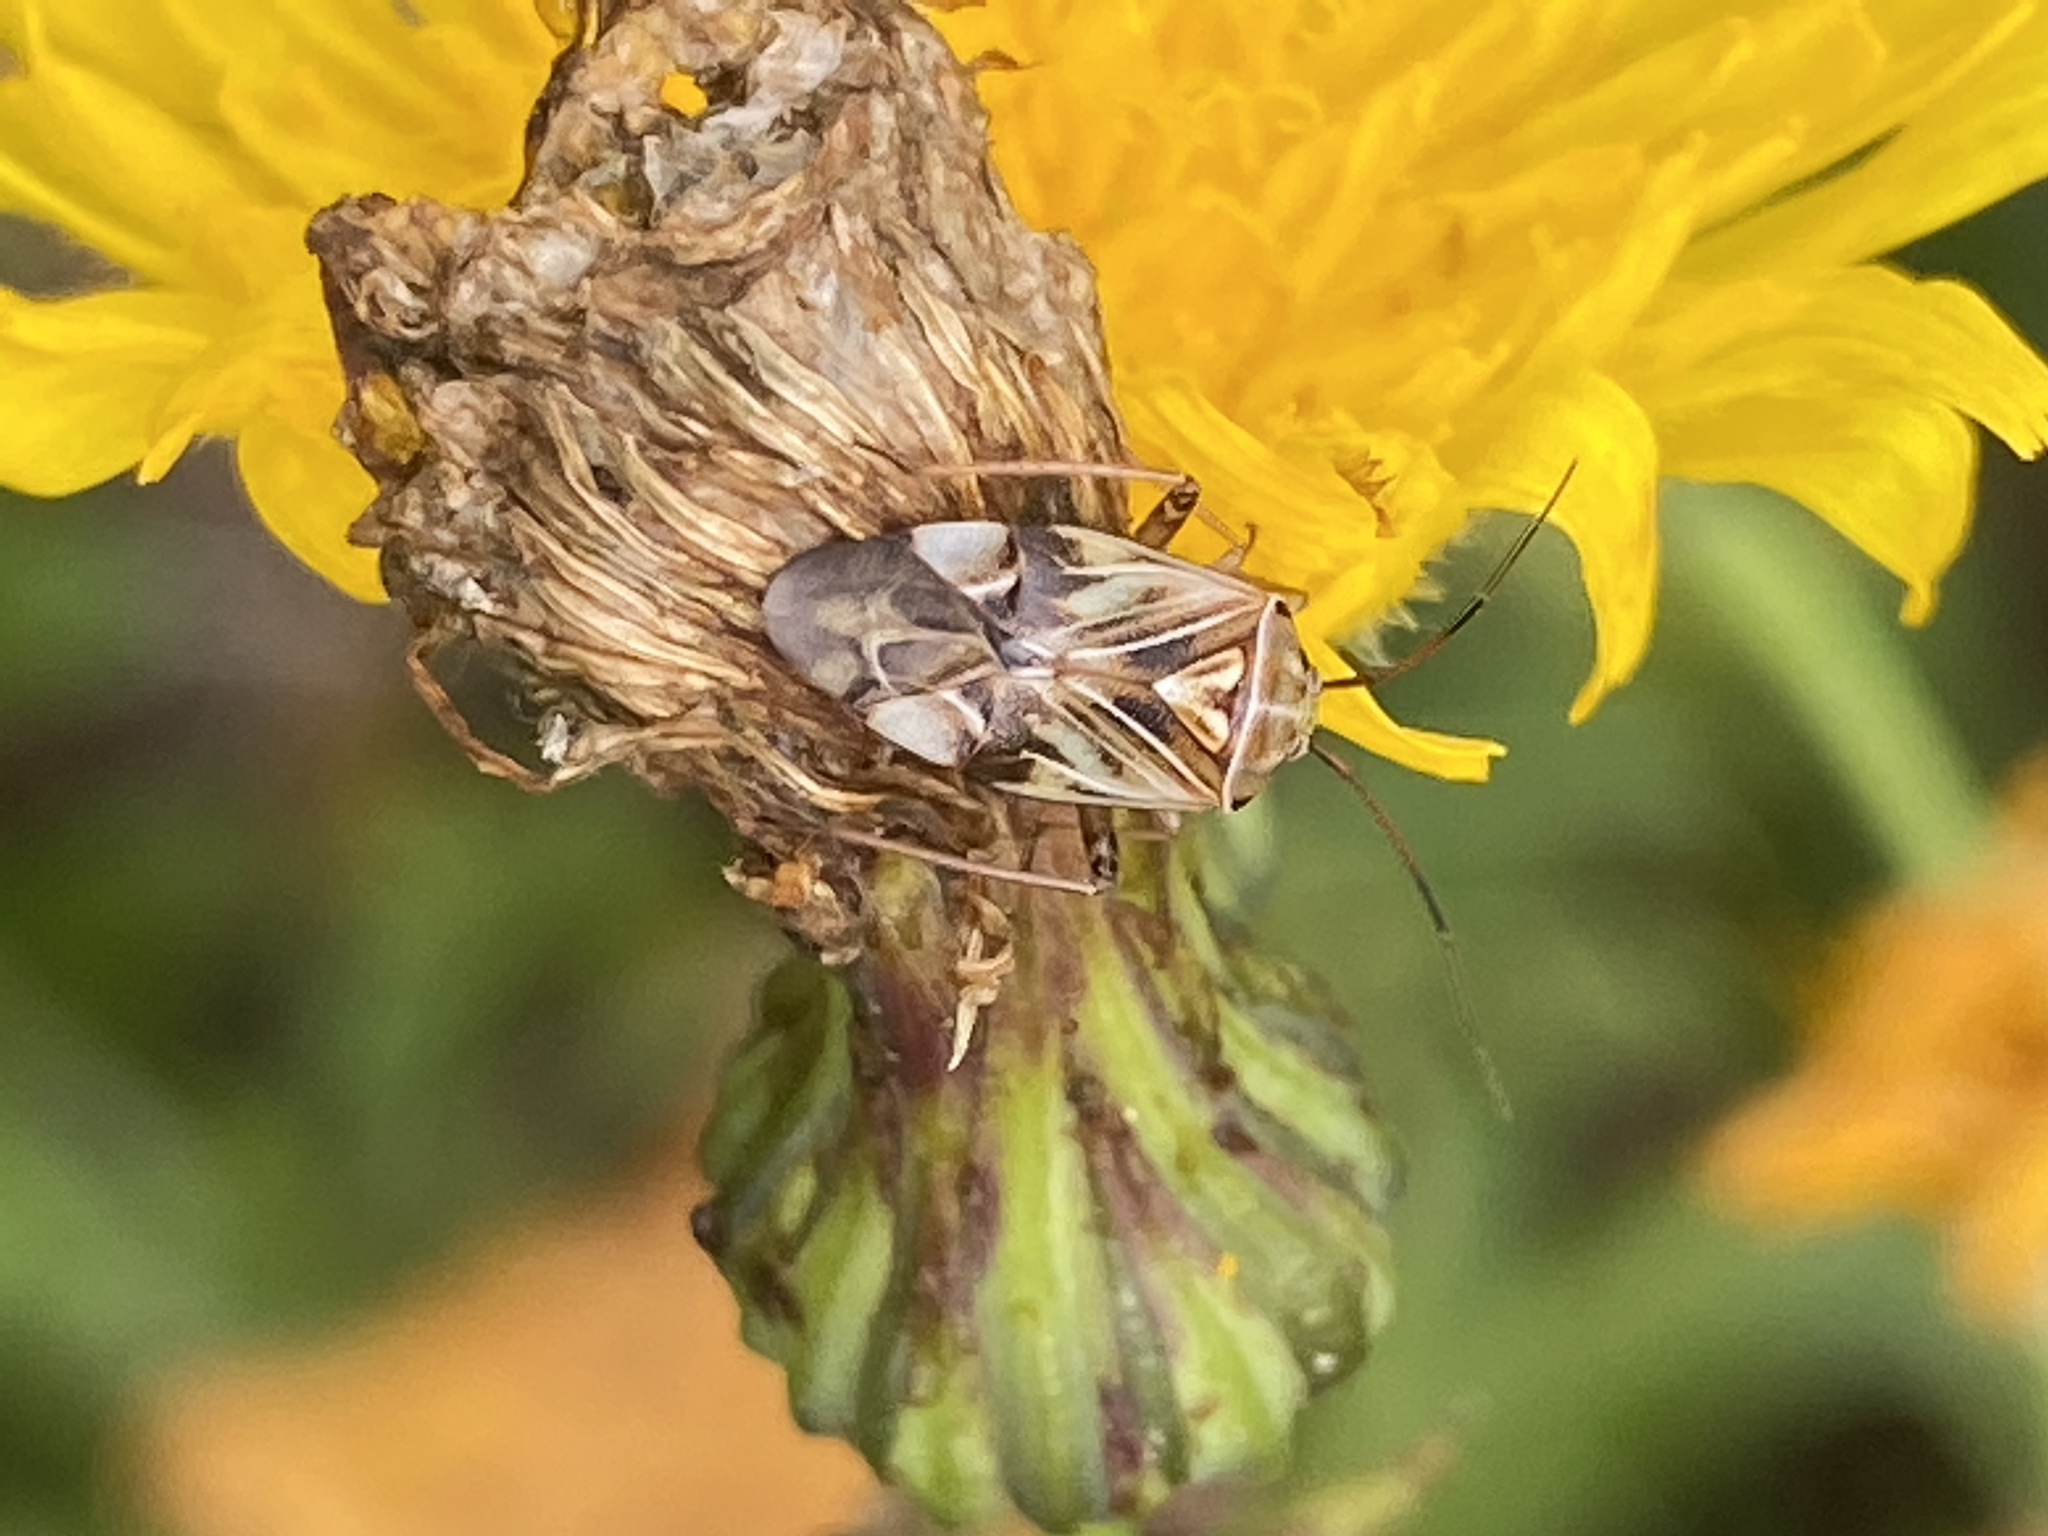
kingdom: Animalia
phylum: Arthropoda
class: Insecta
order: Hemiptera
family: Miridae
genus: Lygus
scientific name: Lygus lineolaris
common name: North american tarnished plant bug
